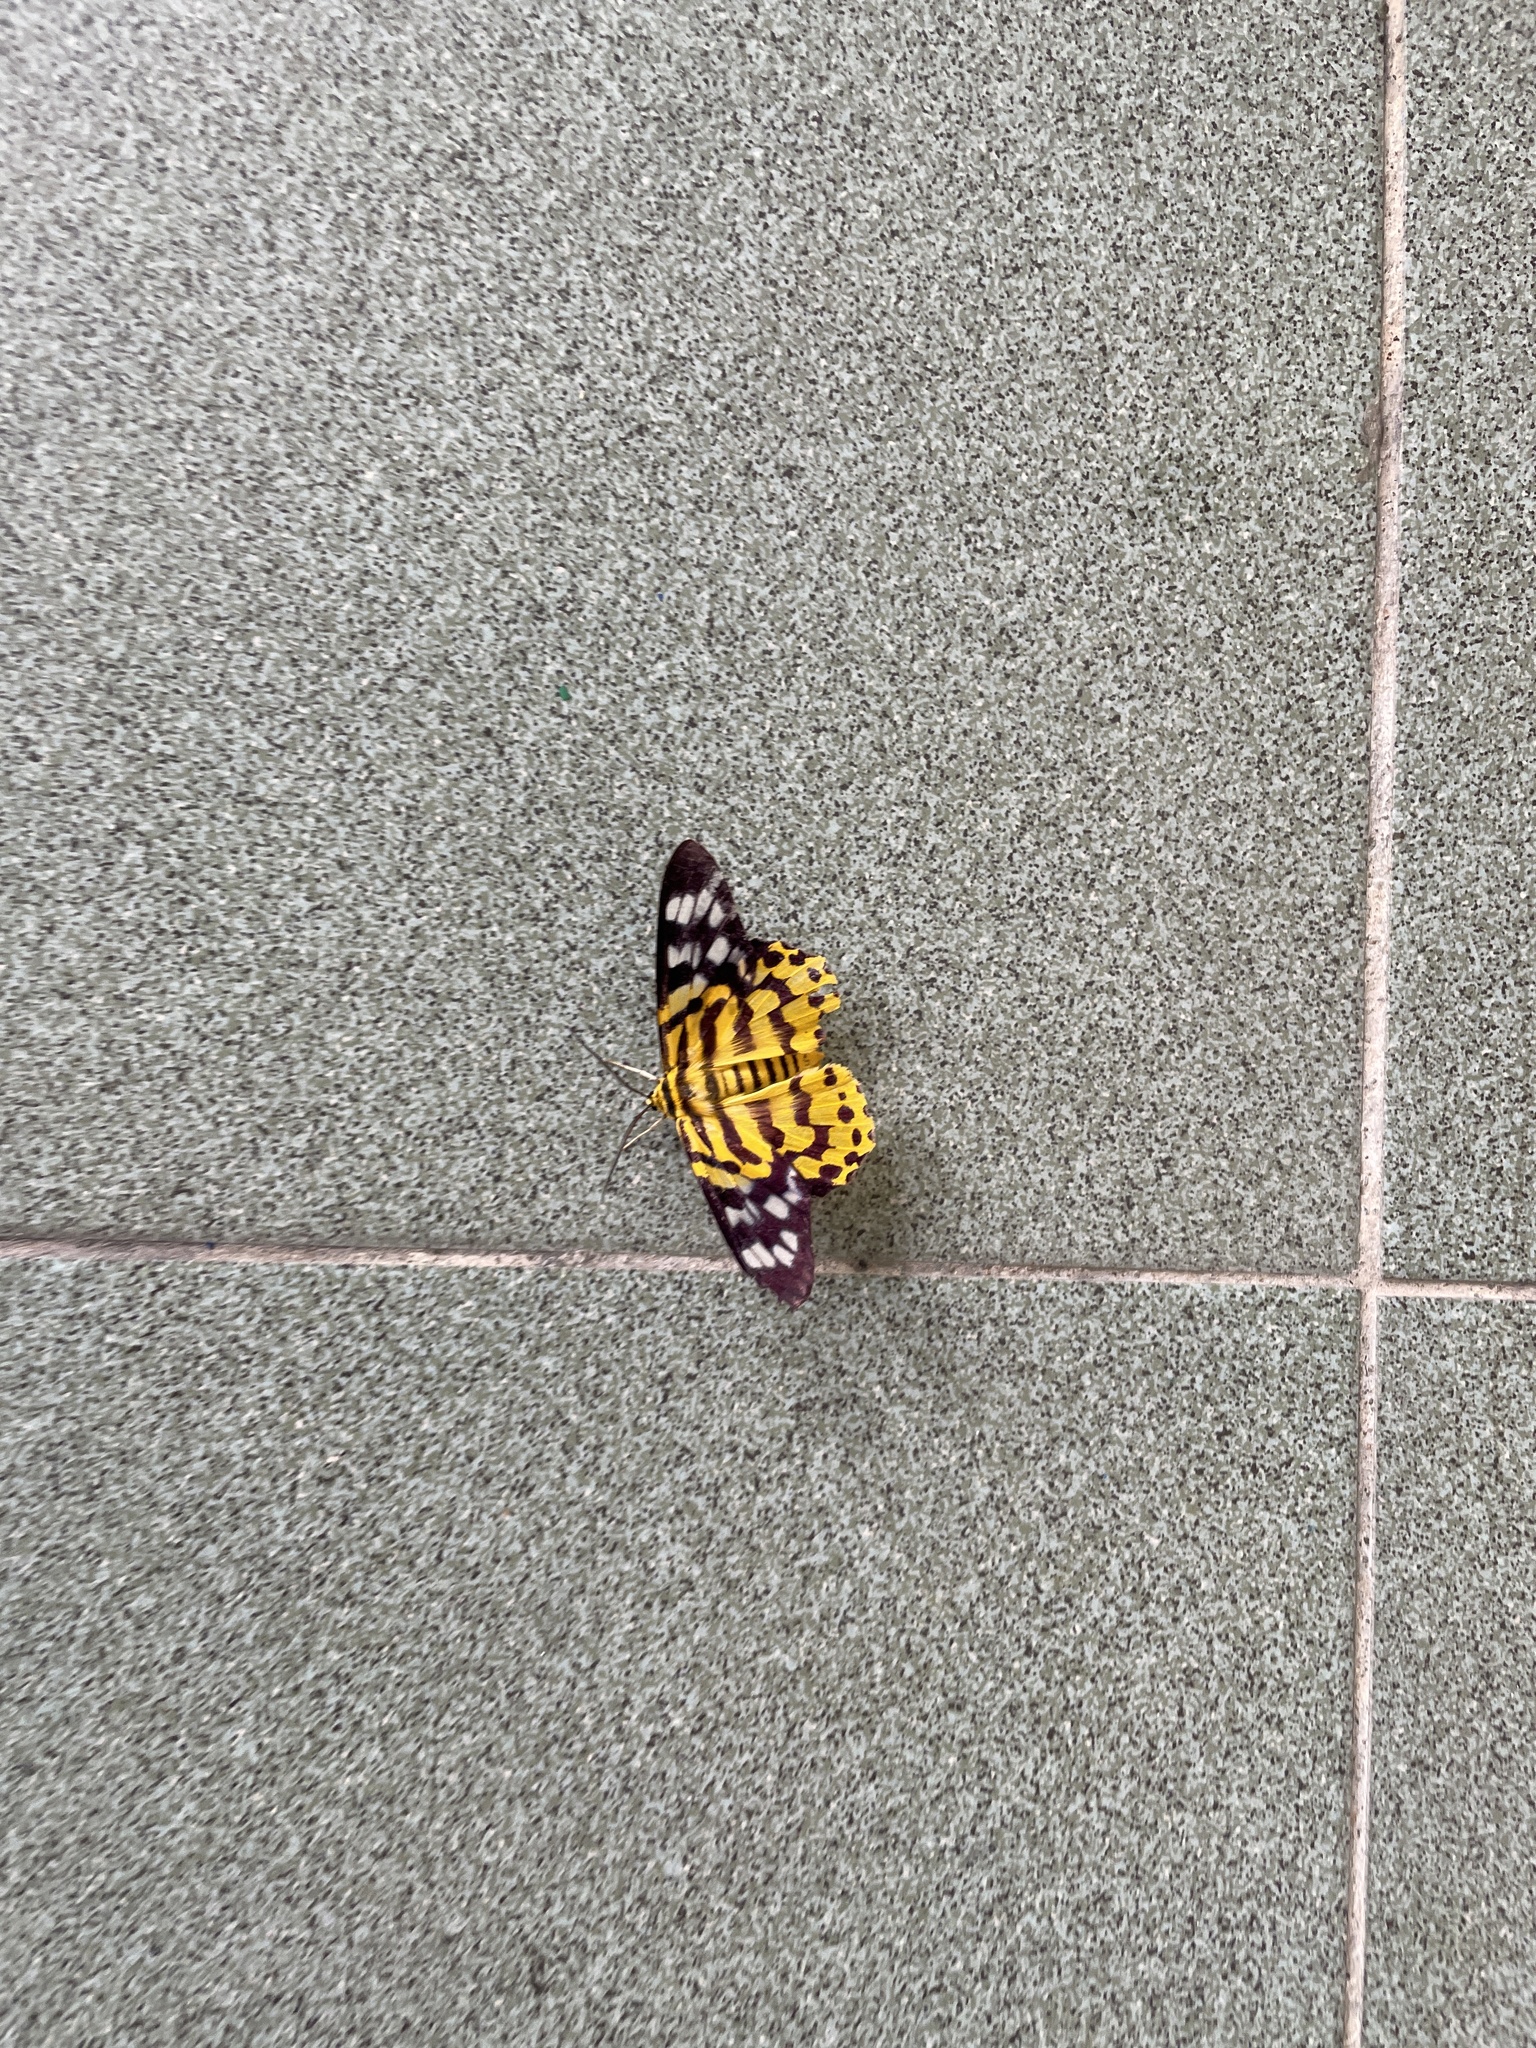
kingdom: Animalia
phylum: Arthropoda
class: Insecta
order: Lepidoptera
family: Geometridae
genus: Dysphania
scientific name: Dysphania militaris
